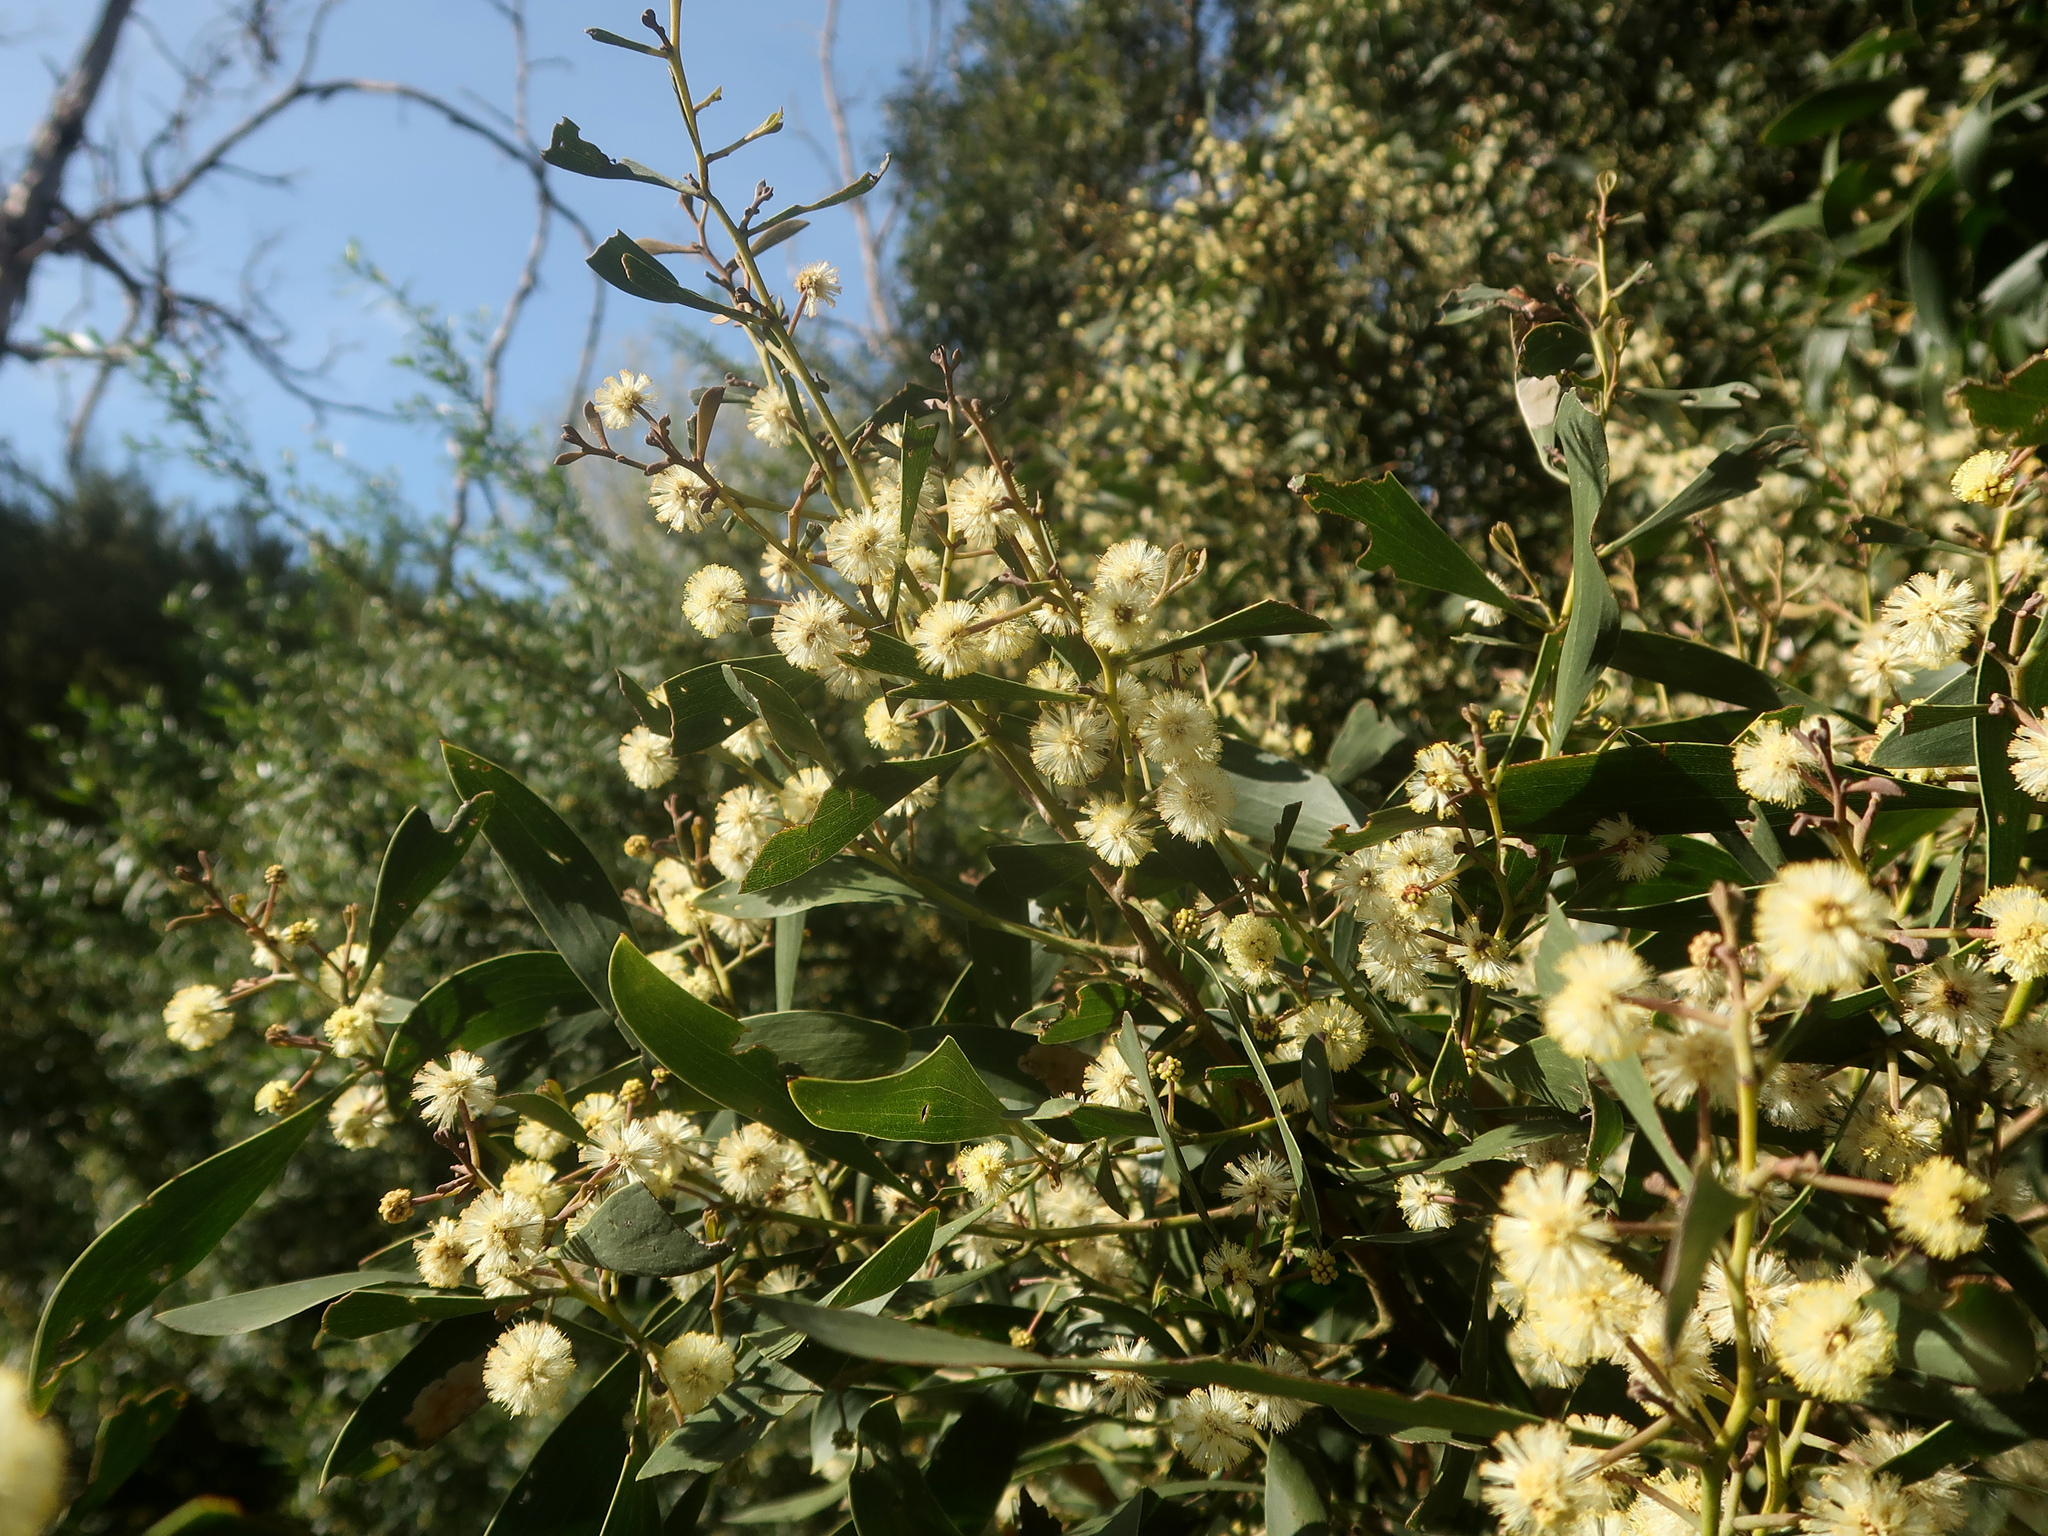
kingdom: Plantae
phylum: Tracheophyta
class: Magnoliopsida
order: Fabales
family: Fabaceae
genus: Acacia
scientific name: Acacia melanoxylon
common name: Blackwood
